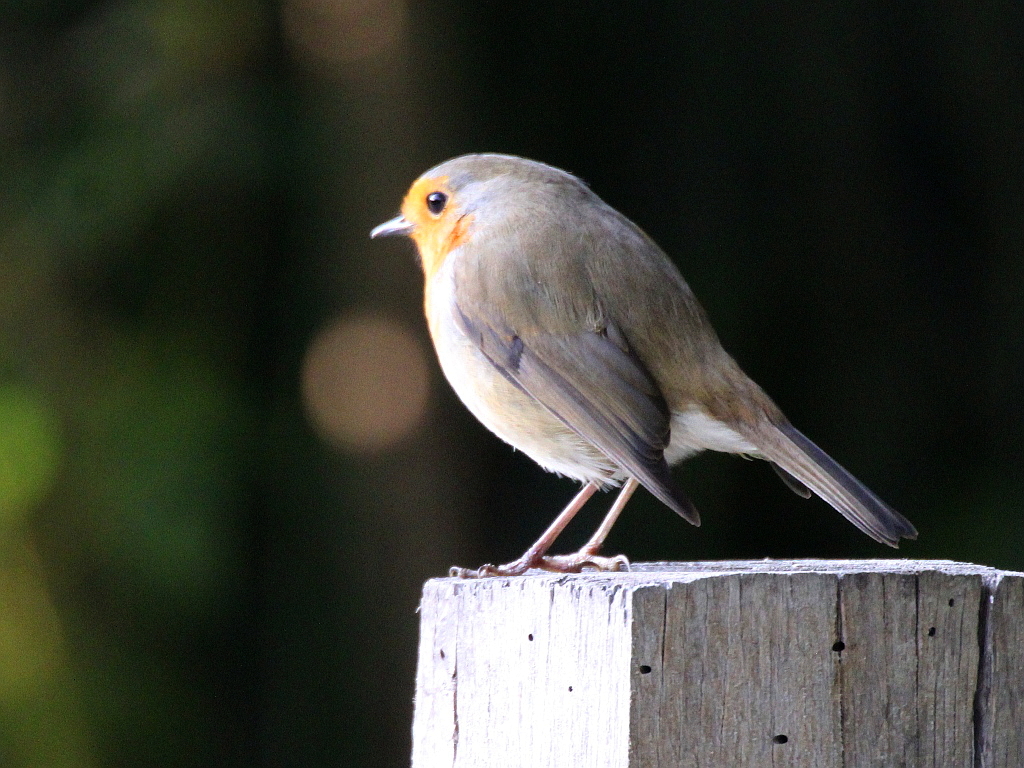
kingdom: Animalia
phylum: Chordata
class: Aves
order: Passeriformes
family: Muscicapidae
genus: Erithacus
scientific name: Erithacus rubecula
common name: European robin
